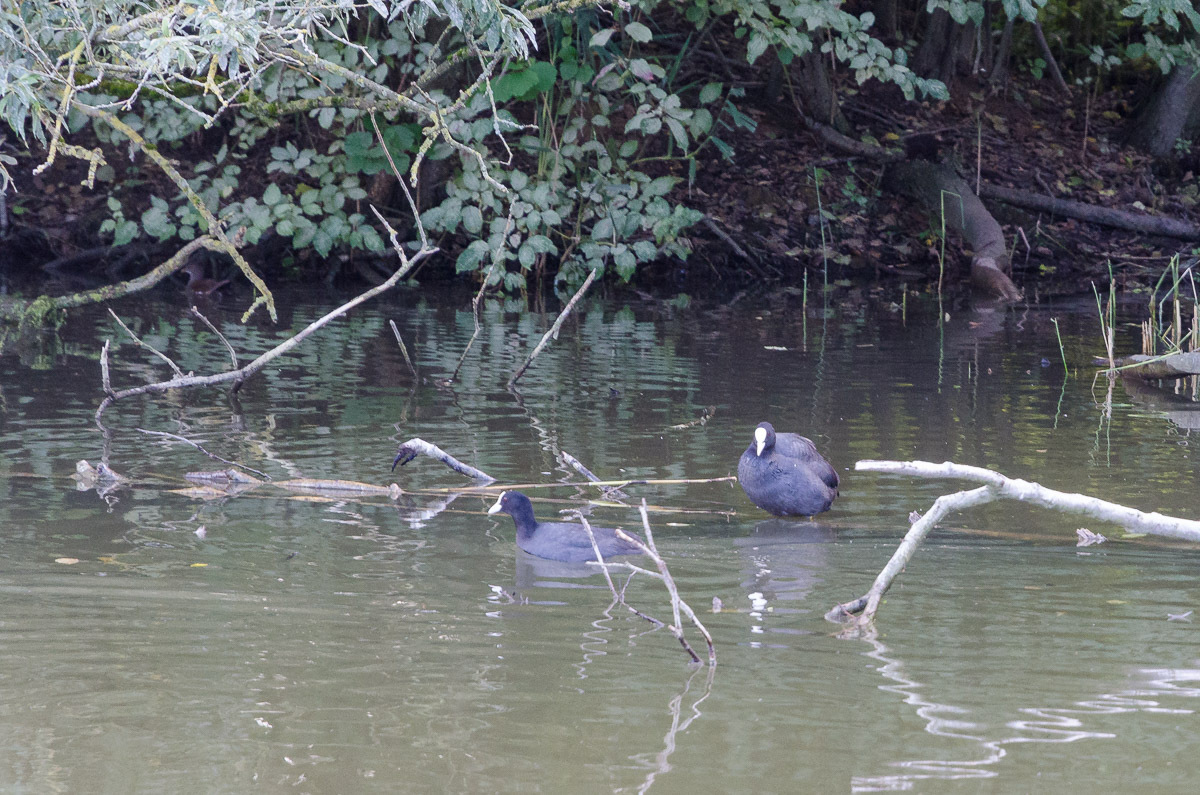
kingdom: Animalia
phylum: Chordata
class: Aves
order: Gruiformes
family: Rallidae
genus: Fulica
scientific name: Fulica atra
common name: Eurasian coot
